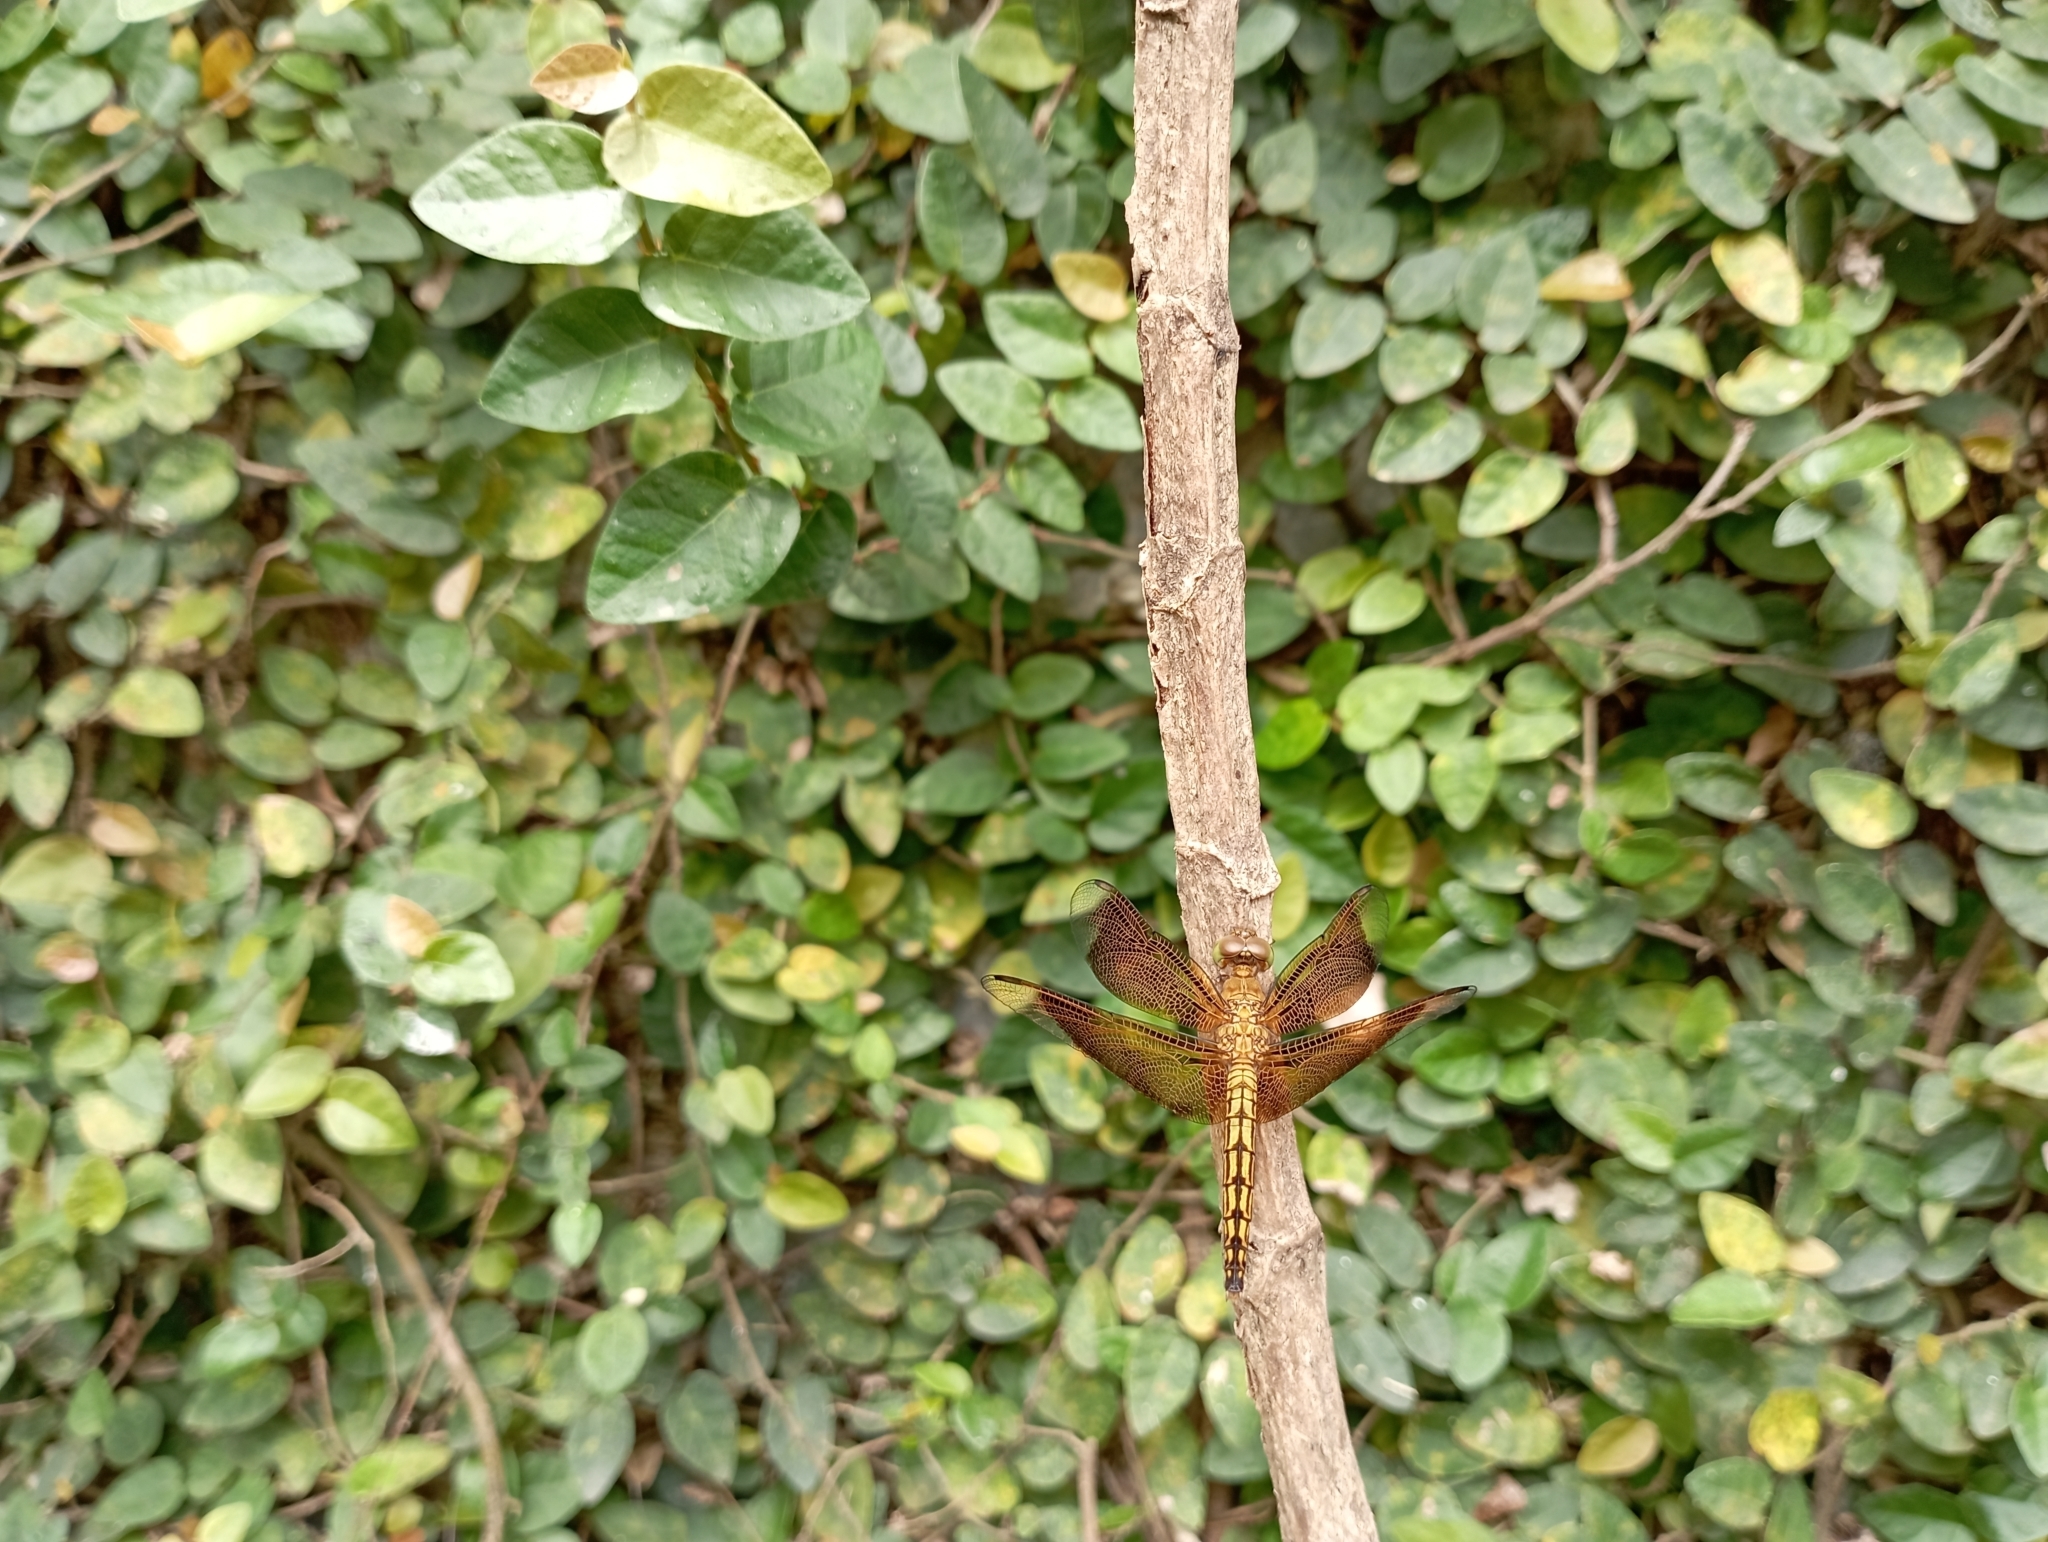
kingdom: Animalia
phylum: Arthropoda
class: Insecta
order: Odonata
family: Libellulidae
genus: Neurothemis
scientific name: Neurothemis ramburii
